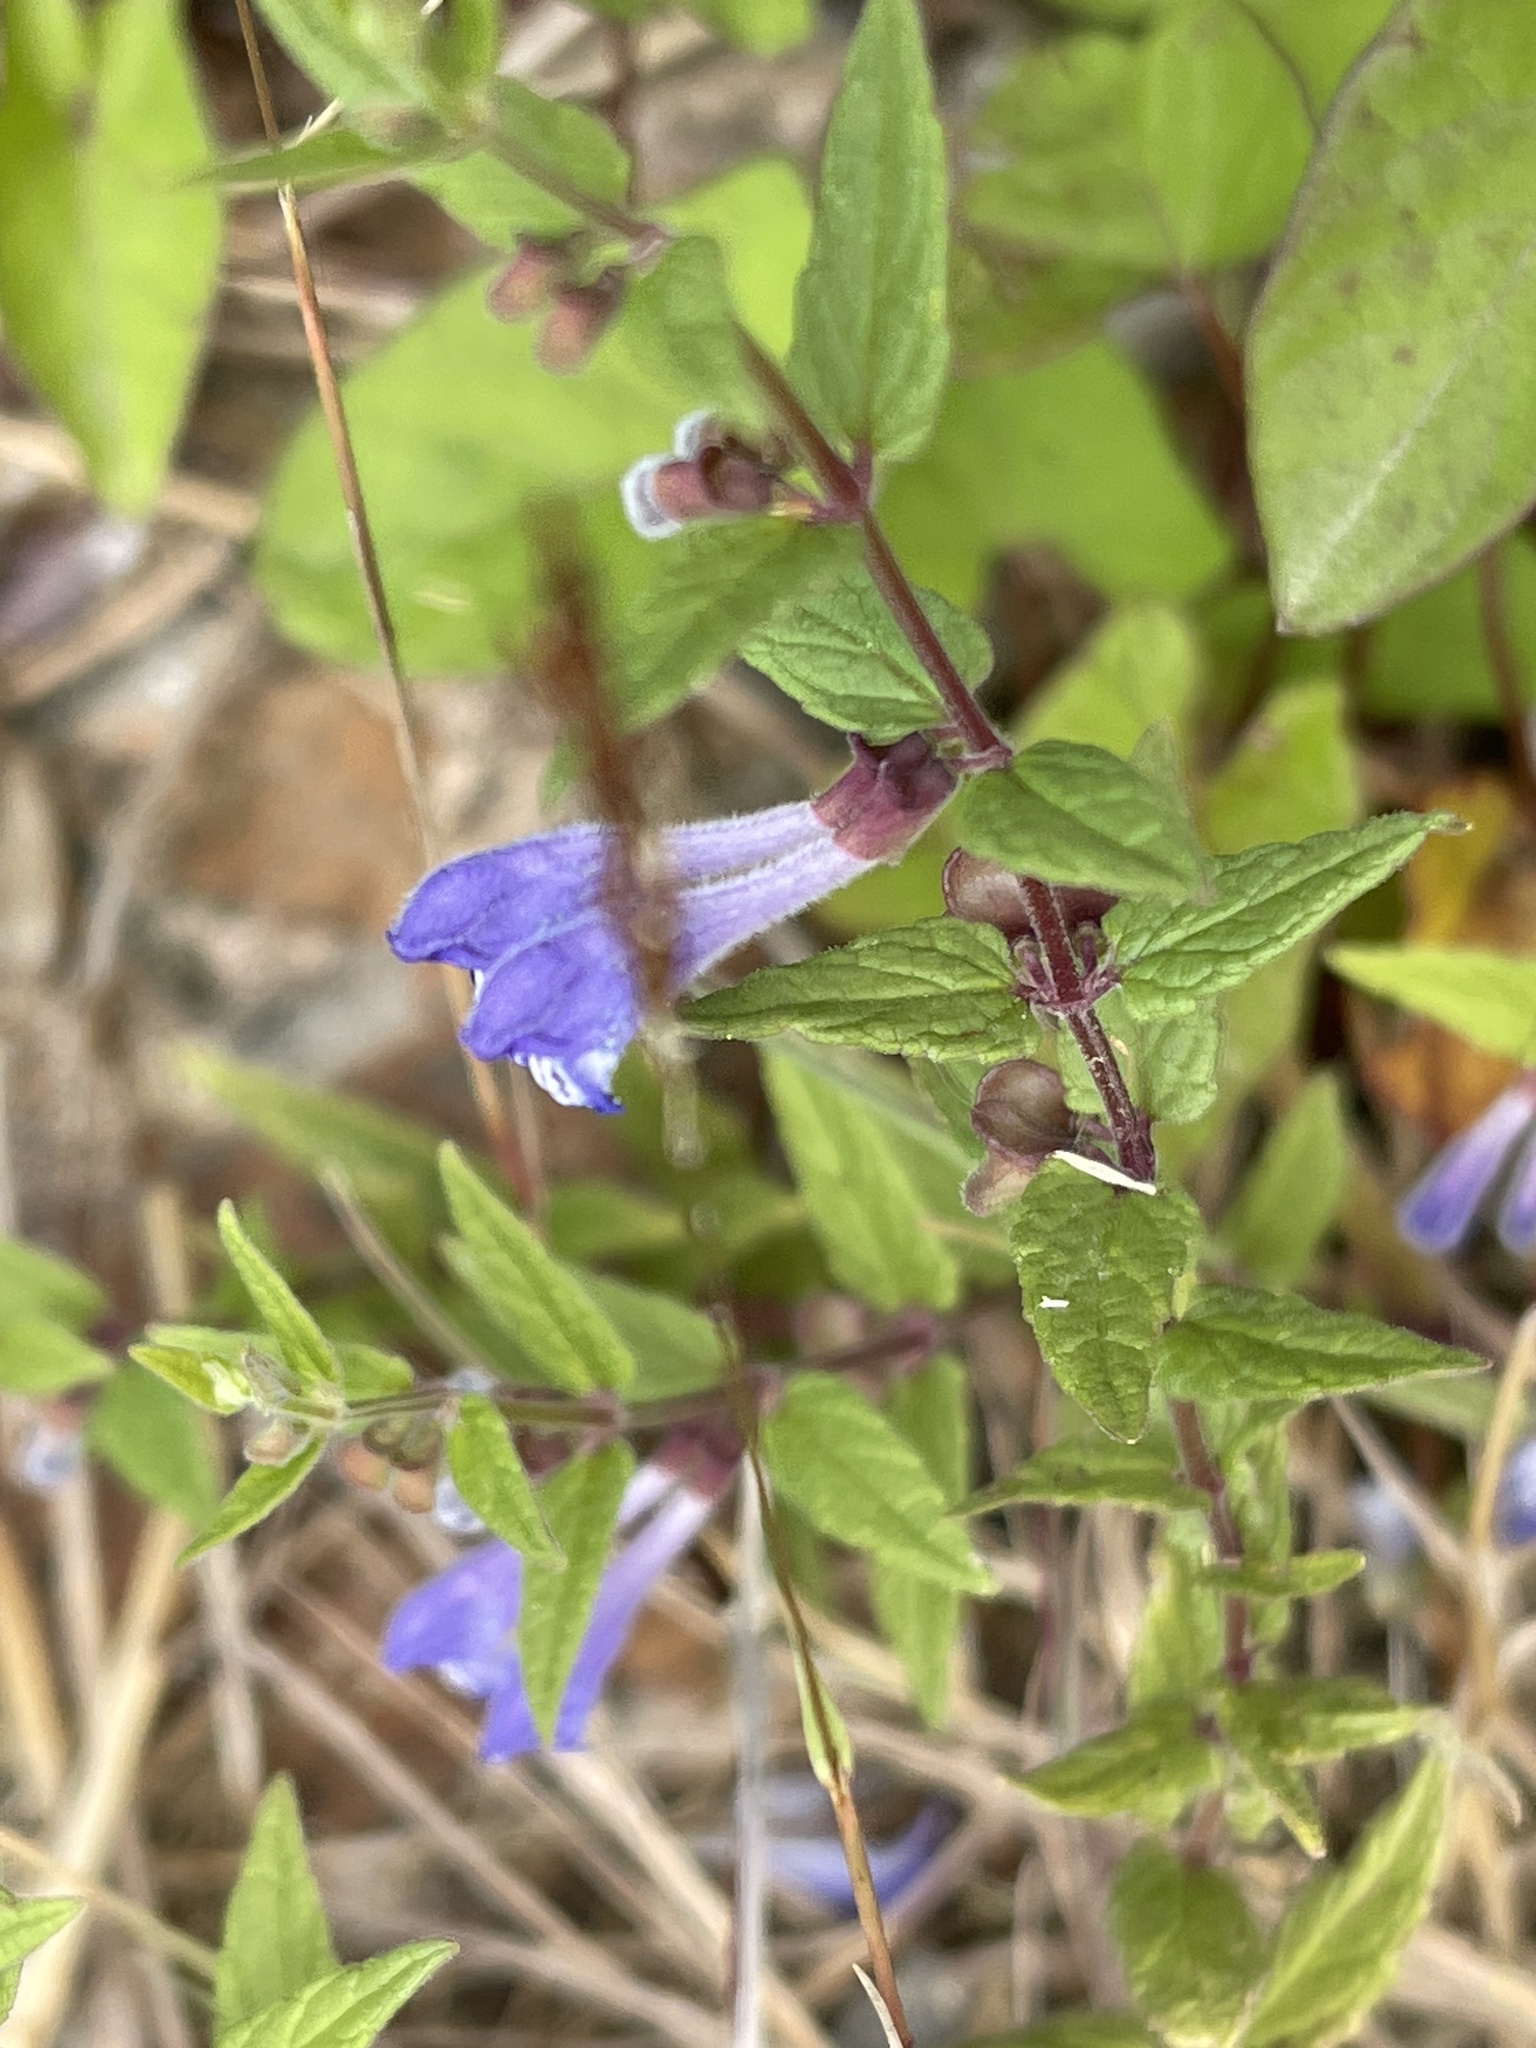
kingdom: Plantae
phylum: Tracheophyta
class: Magnoliopsida
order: Lamiales
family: Lamiaceae
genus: Scutellaria
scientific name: Scutellaria galericulata
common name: Skullcap
